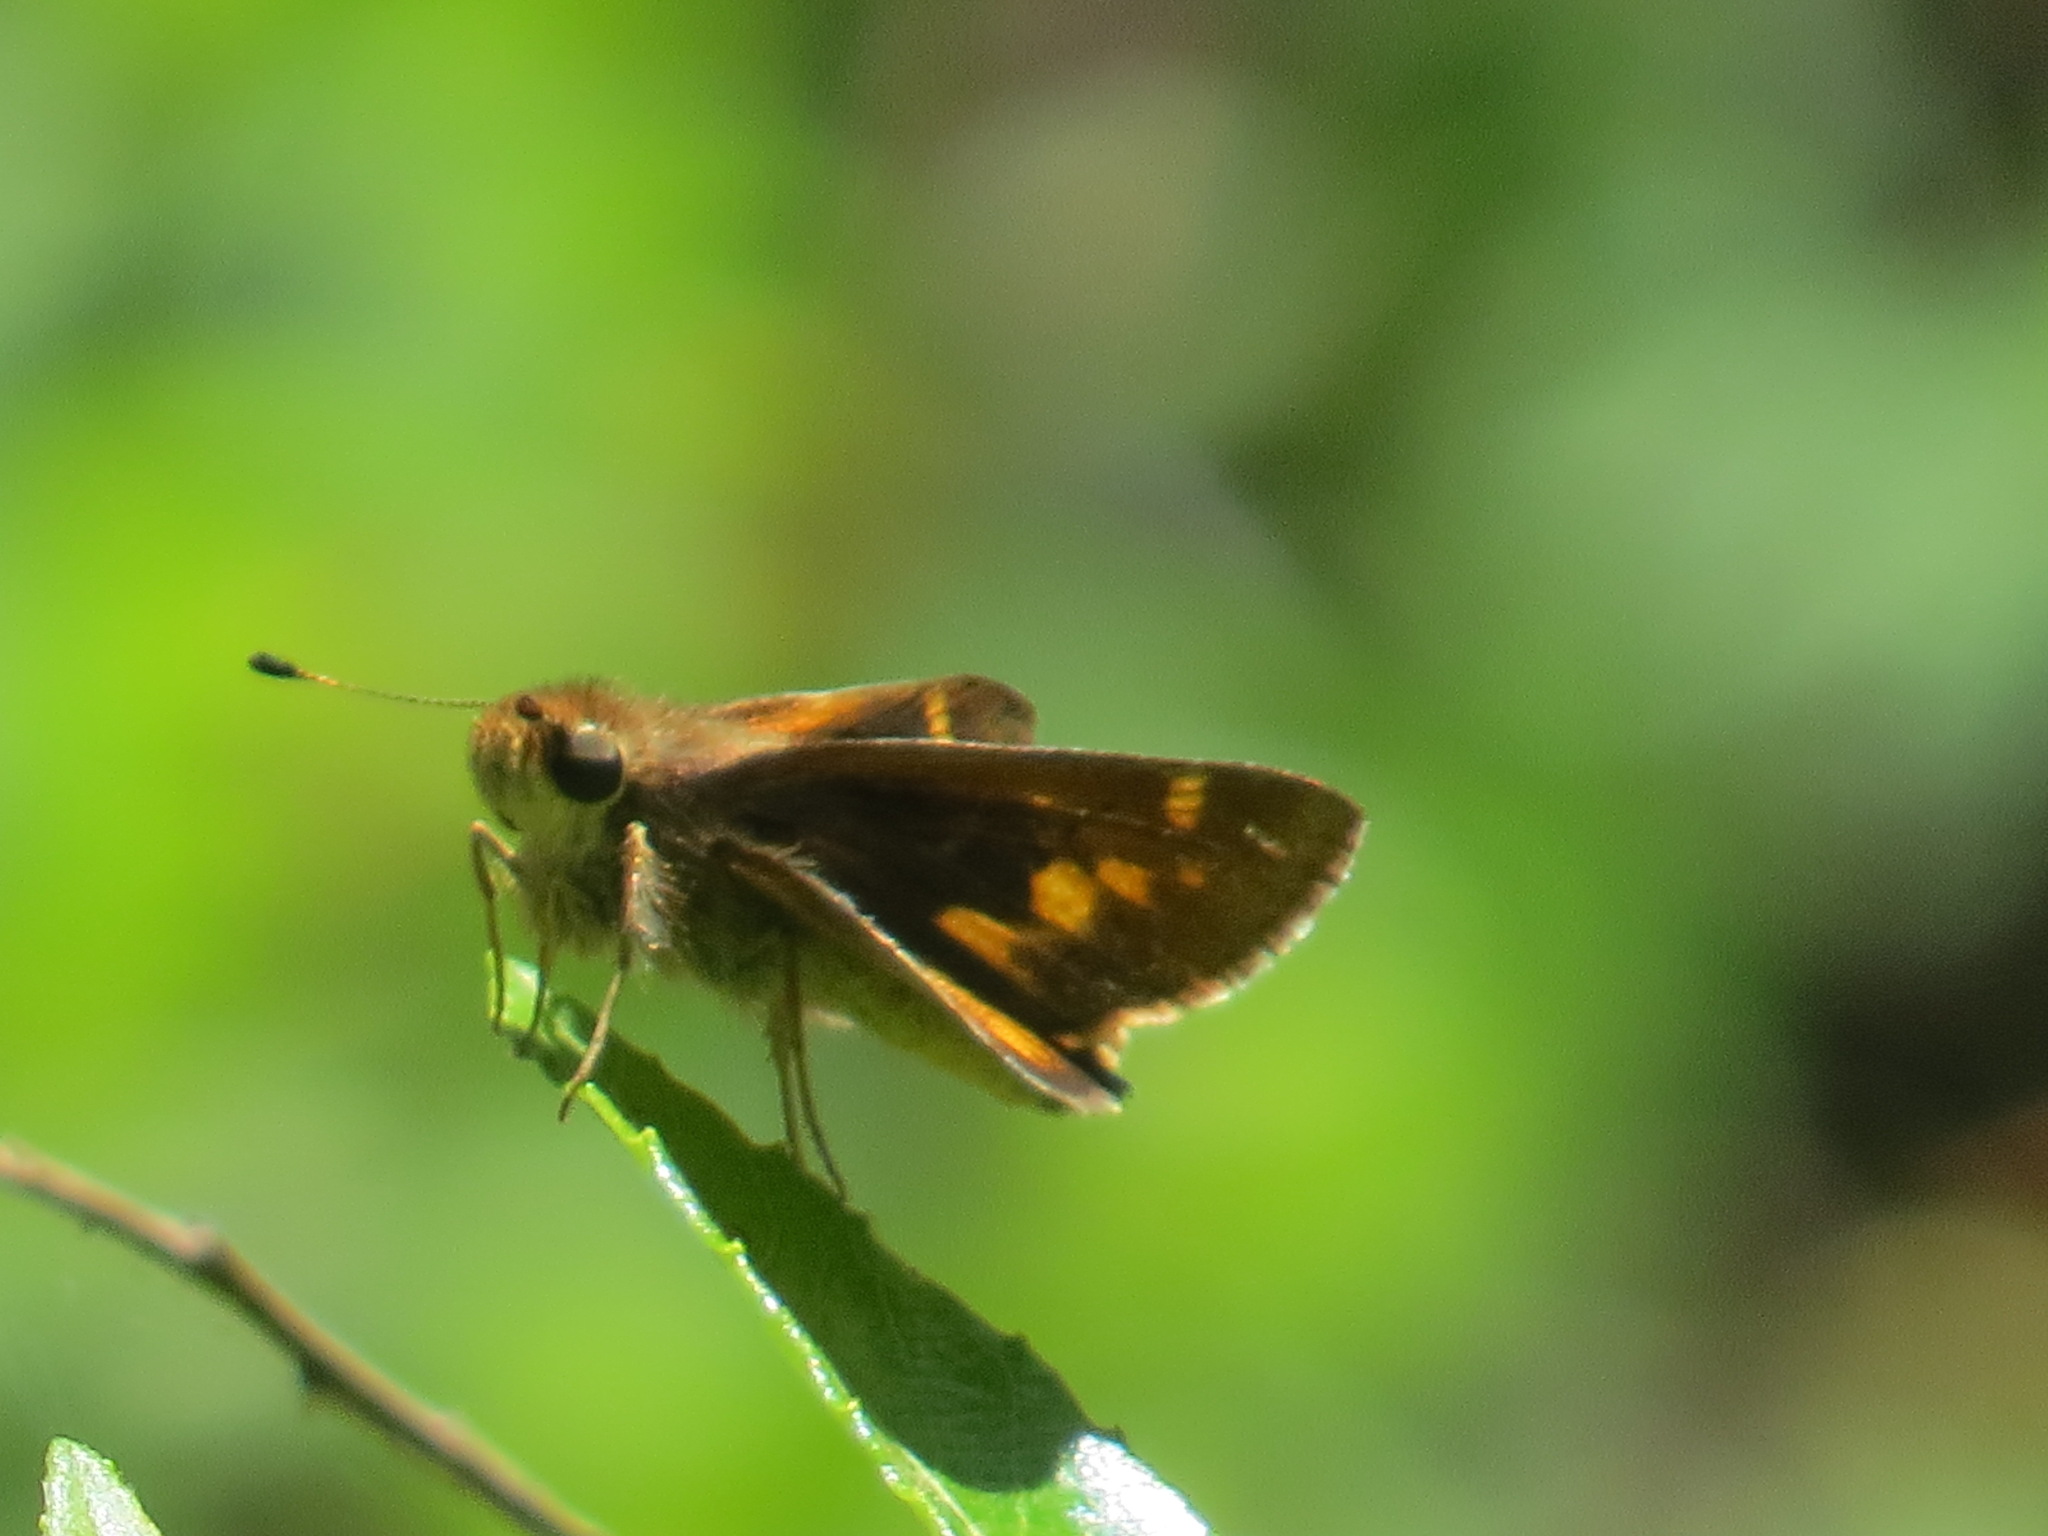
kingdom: Animalia
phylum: Arthropoda
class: Insecta
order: Lepidoptera
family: Hesperiidae
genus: Lon
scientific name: Lon melane
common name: Umber skipper
